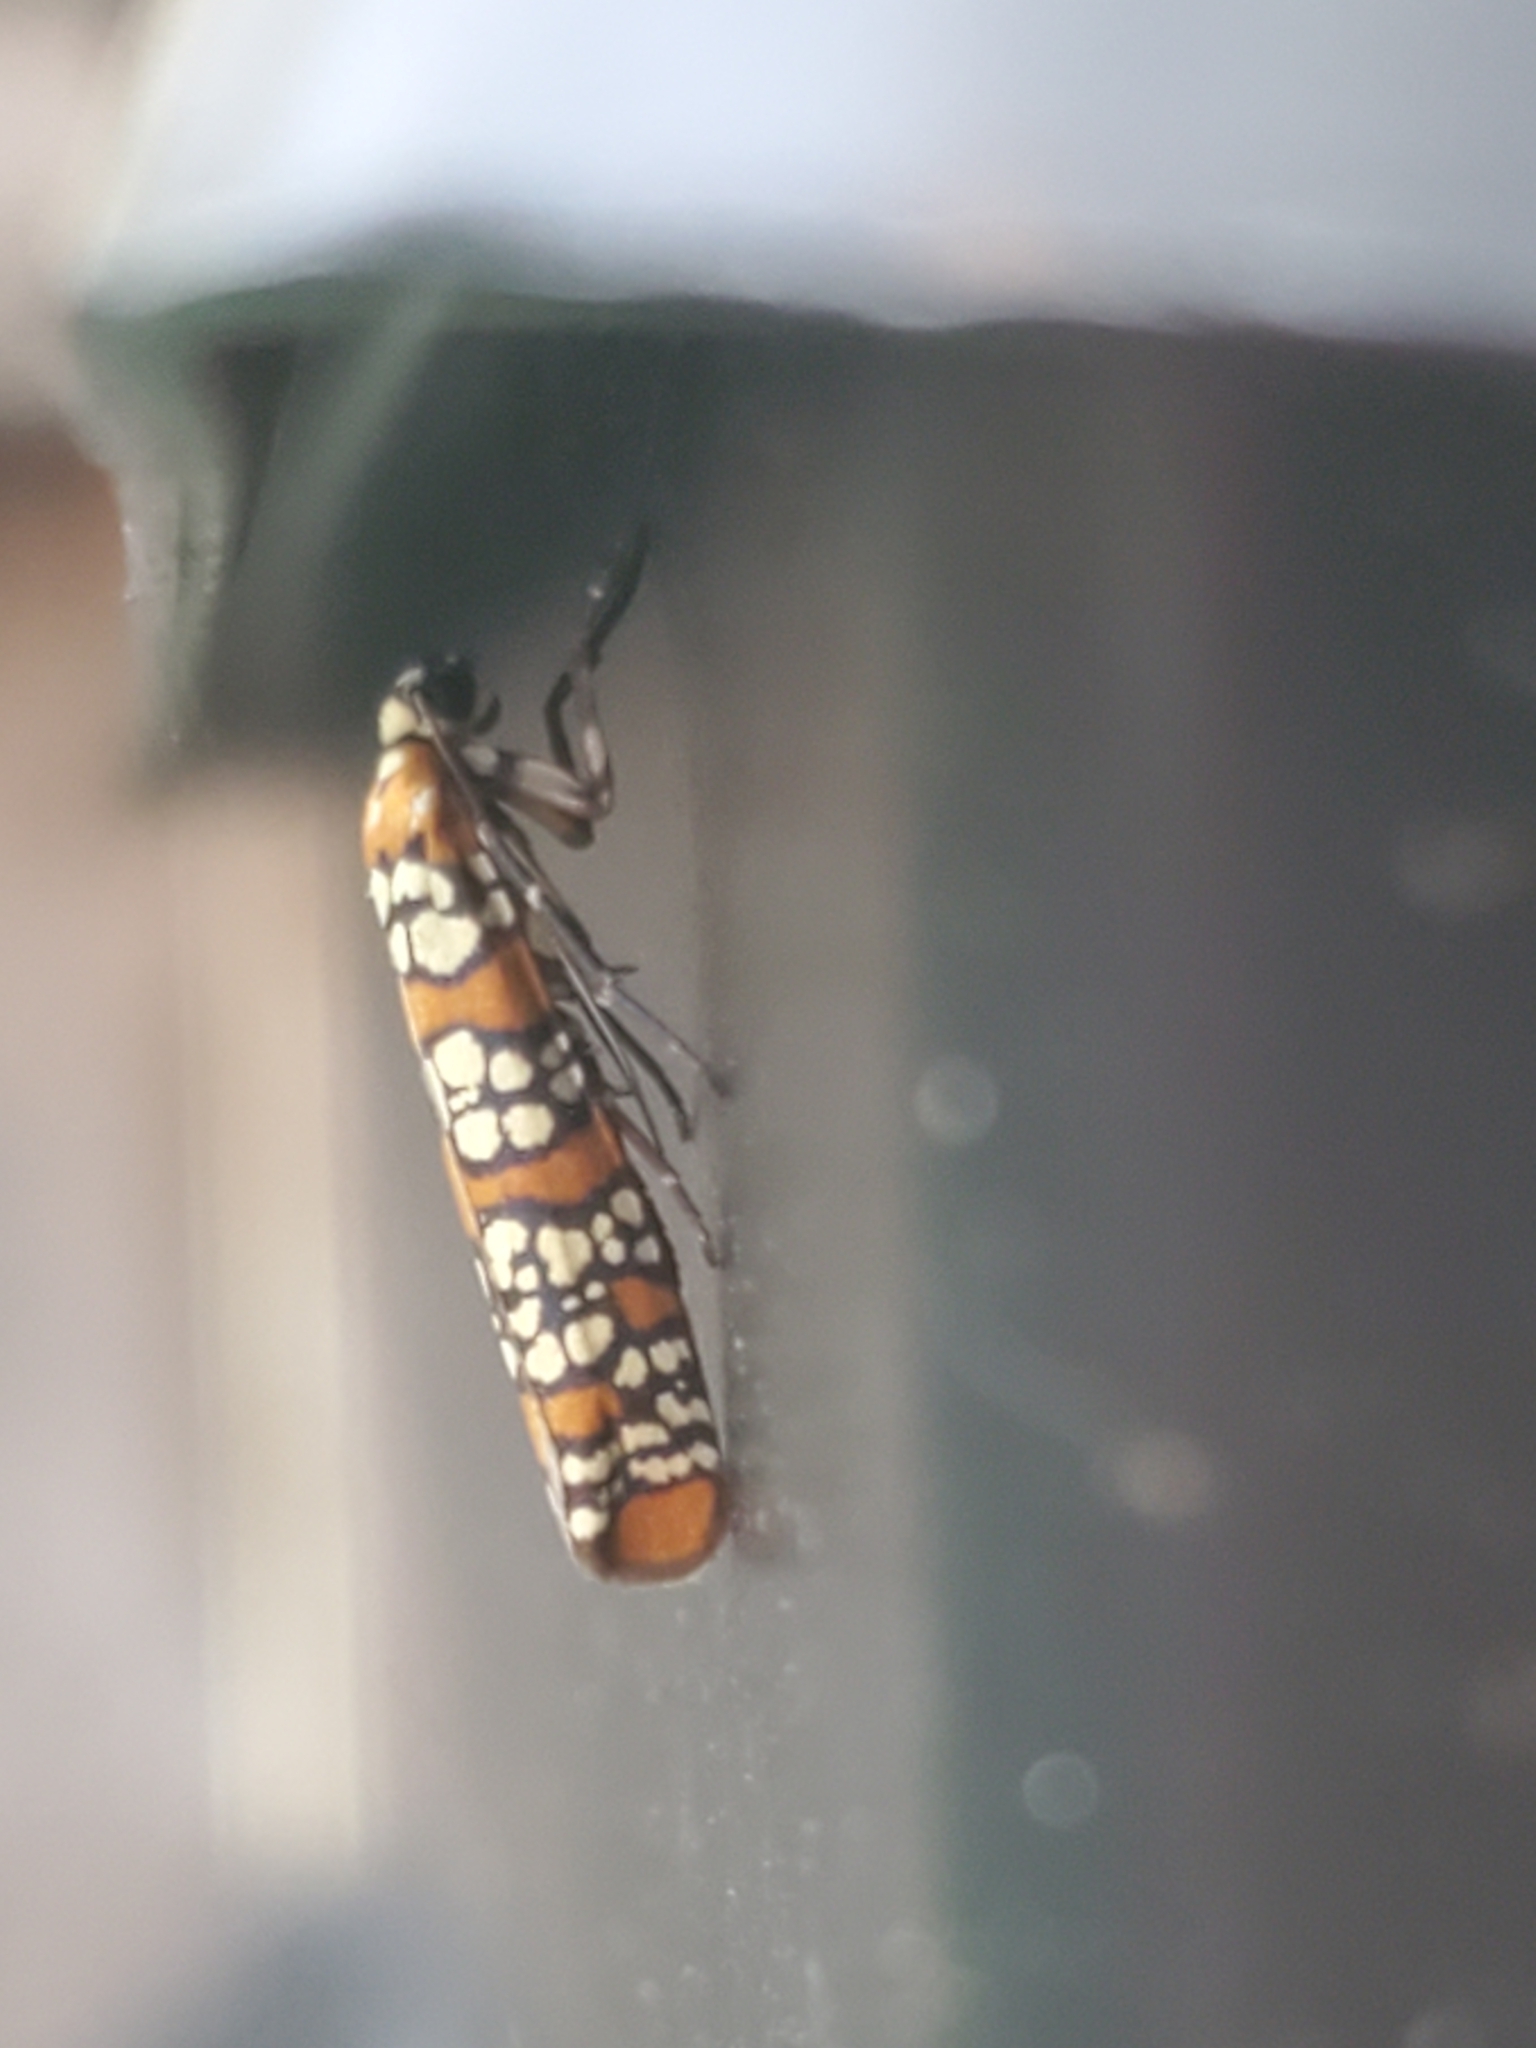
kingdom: Animalia
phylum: Arthropoda
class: Insecta
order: Lepidoptera
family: Attevidae
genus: Atteva
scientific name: Atteva punctella
